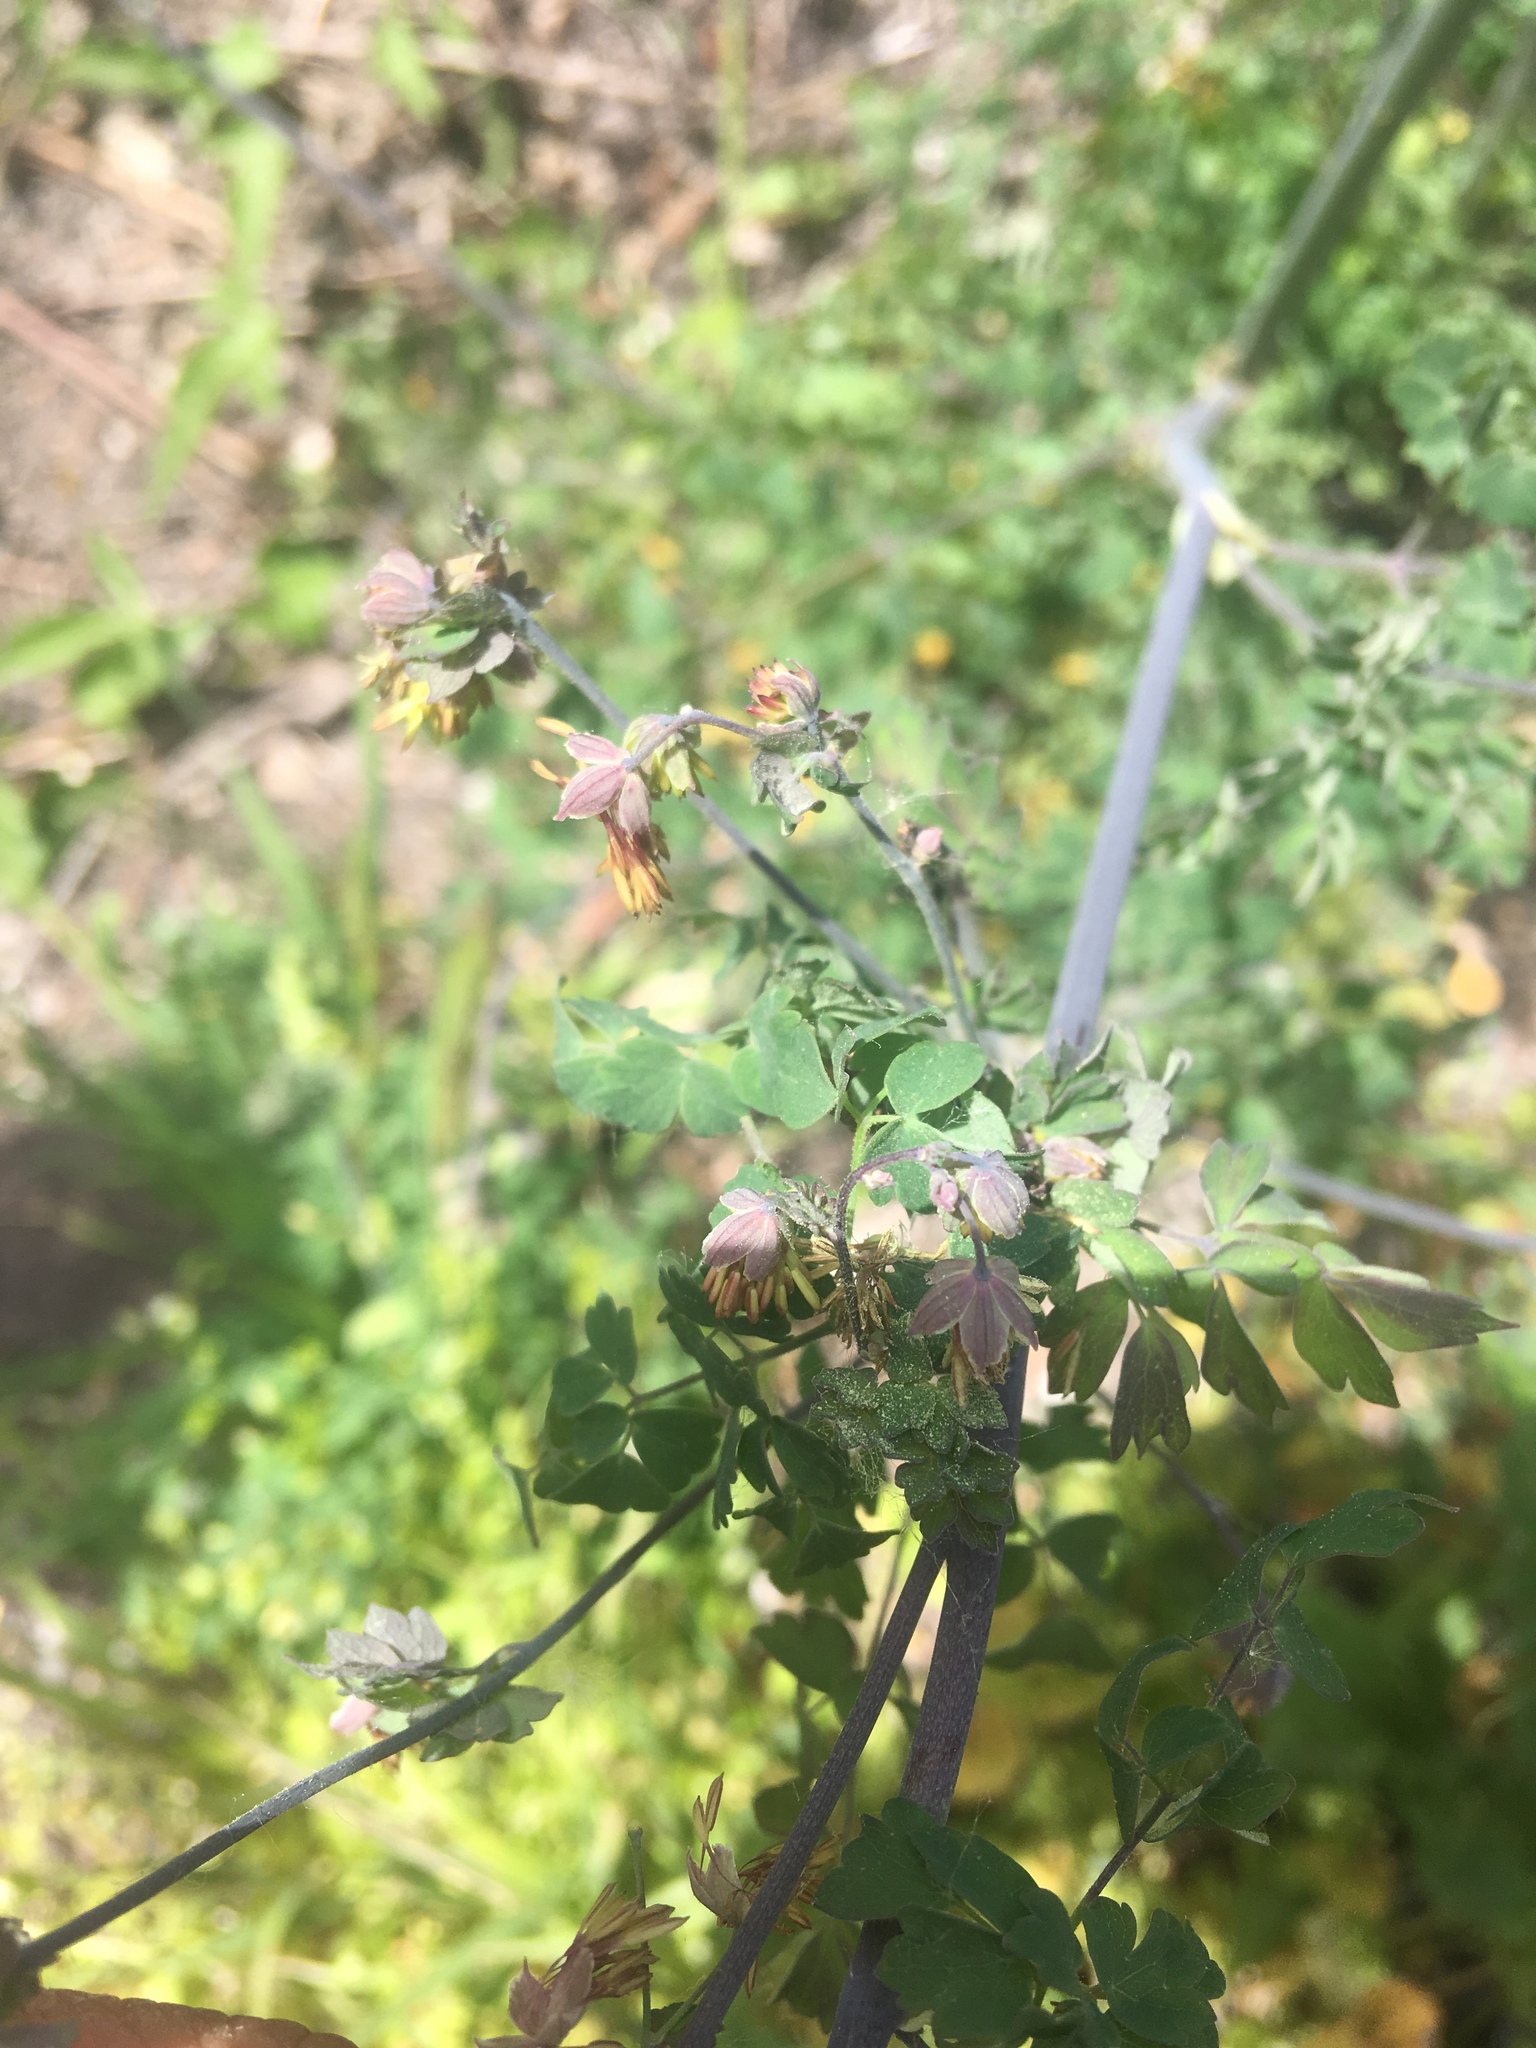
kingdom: Plantae
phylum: Tracheophyta
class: Magnoliopsida
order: Ranunculales
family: Ranunculaceae
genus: Thalictrum
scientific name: Thalictrum fendleri
